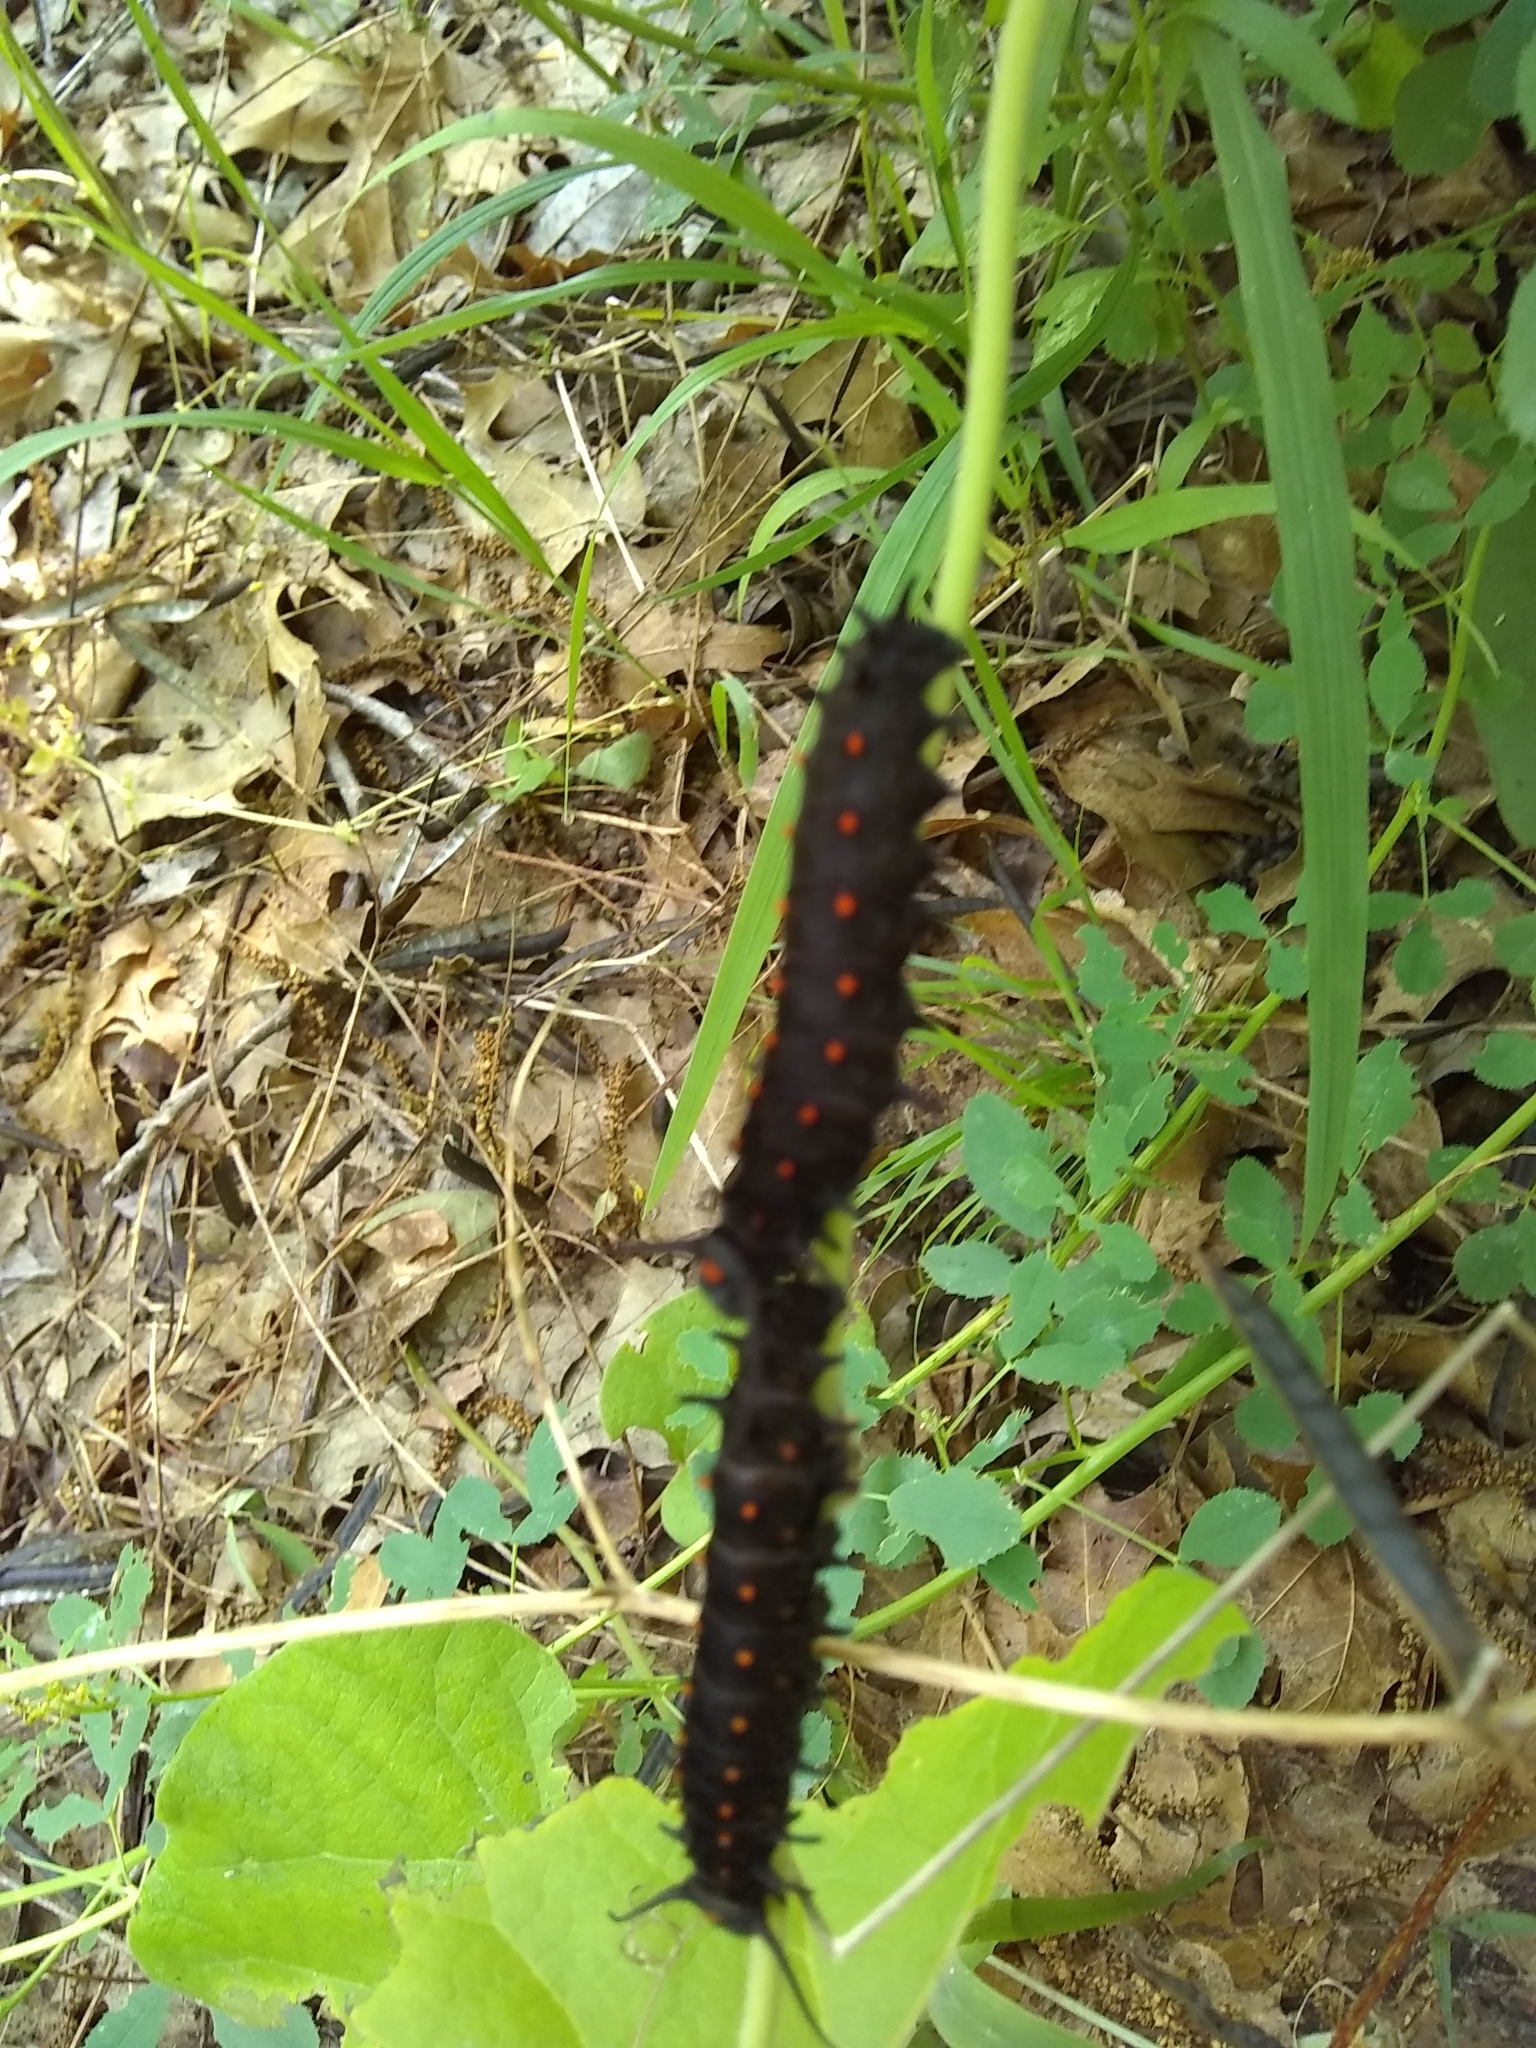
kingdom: Animalia
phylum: Arthropoda
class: Insecta
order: Lepidoptera
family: Papilionidae
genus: Battus
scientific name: Battus philenor
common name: Pipevine swallowtail
